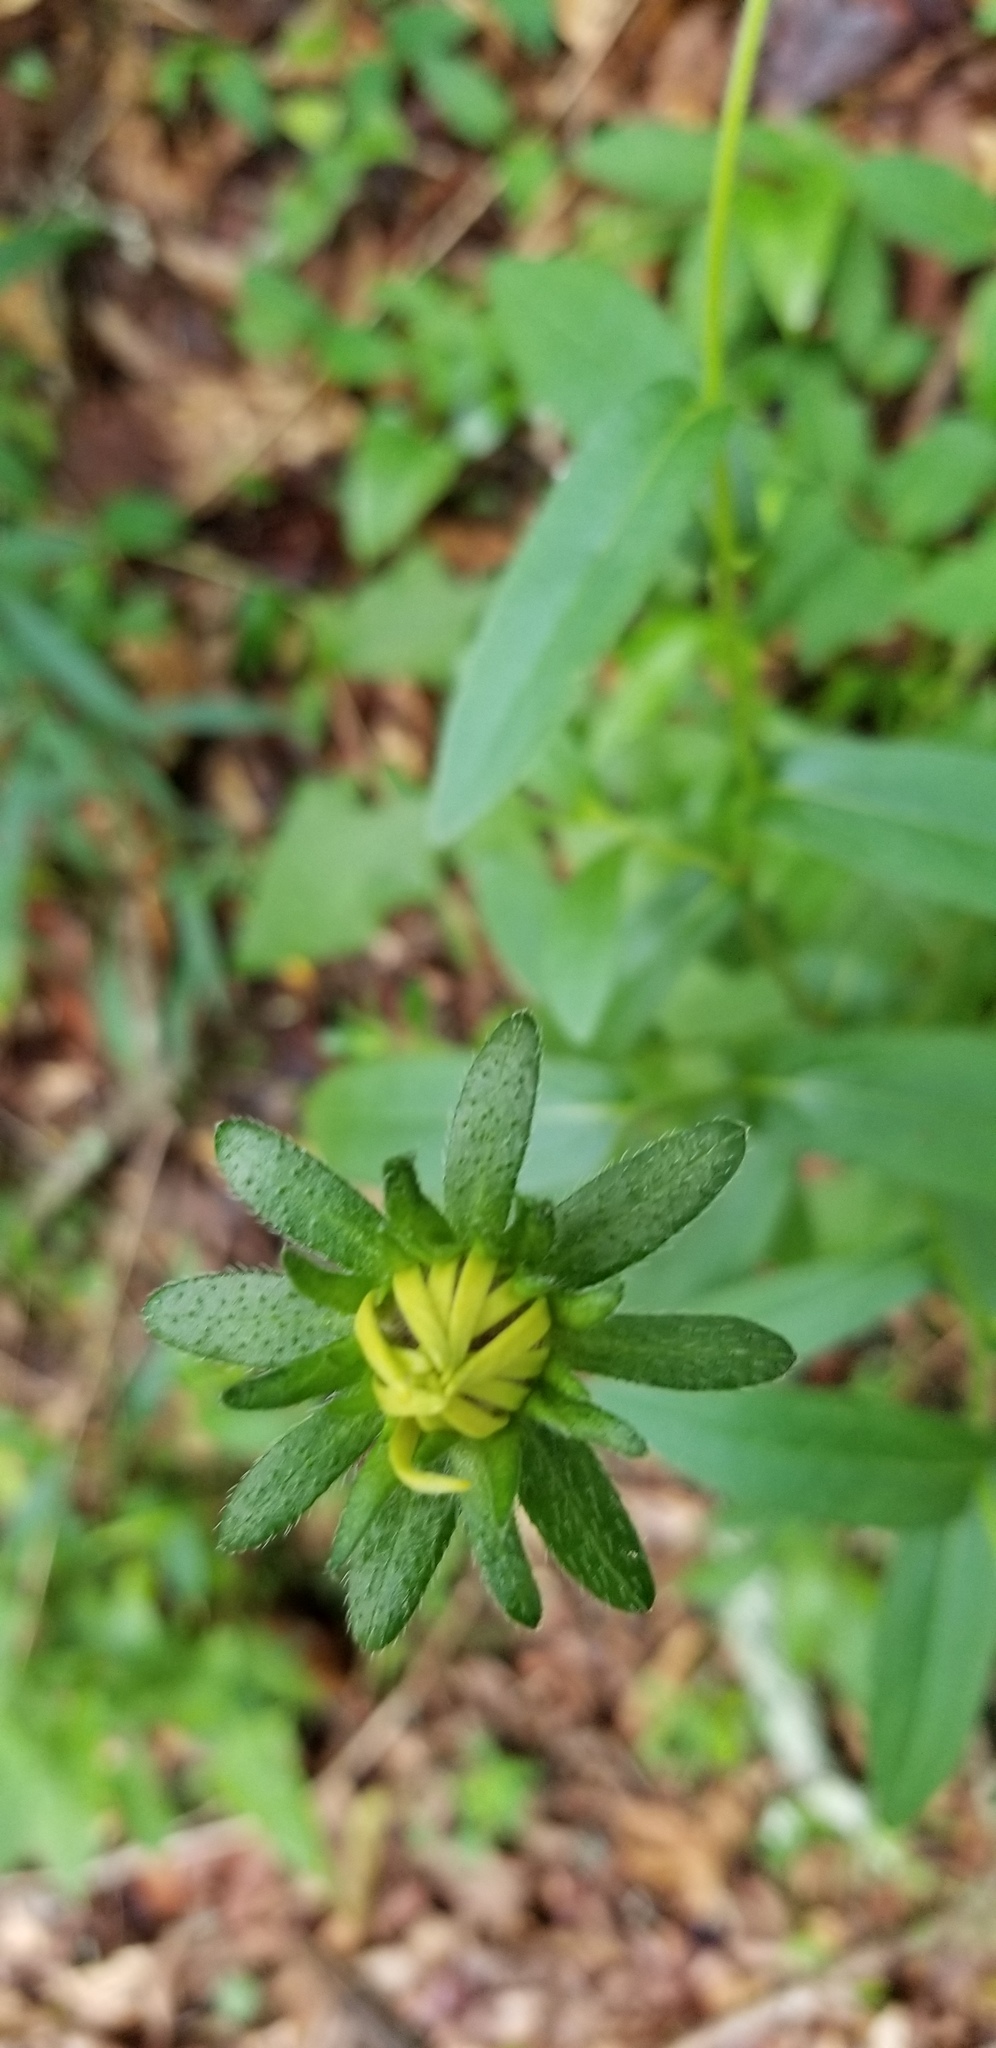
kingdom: Plantae
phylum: Tracheophyta
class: Magnoliopsida
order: Asterales
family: Asteraceae
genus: Rudbeckia
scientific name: Rudbeckia hirta
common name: Black-eyed-susan
